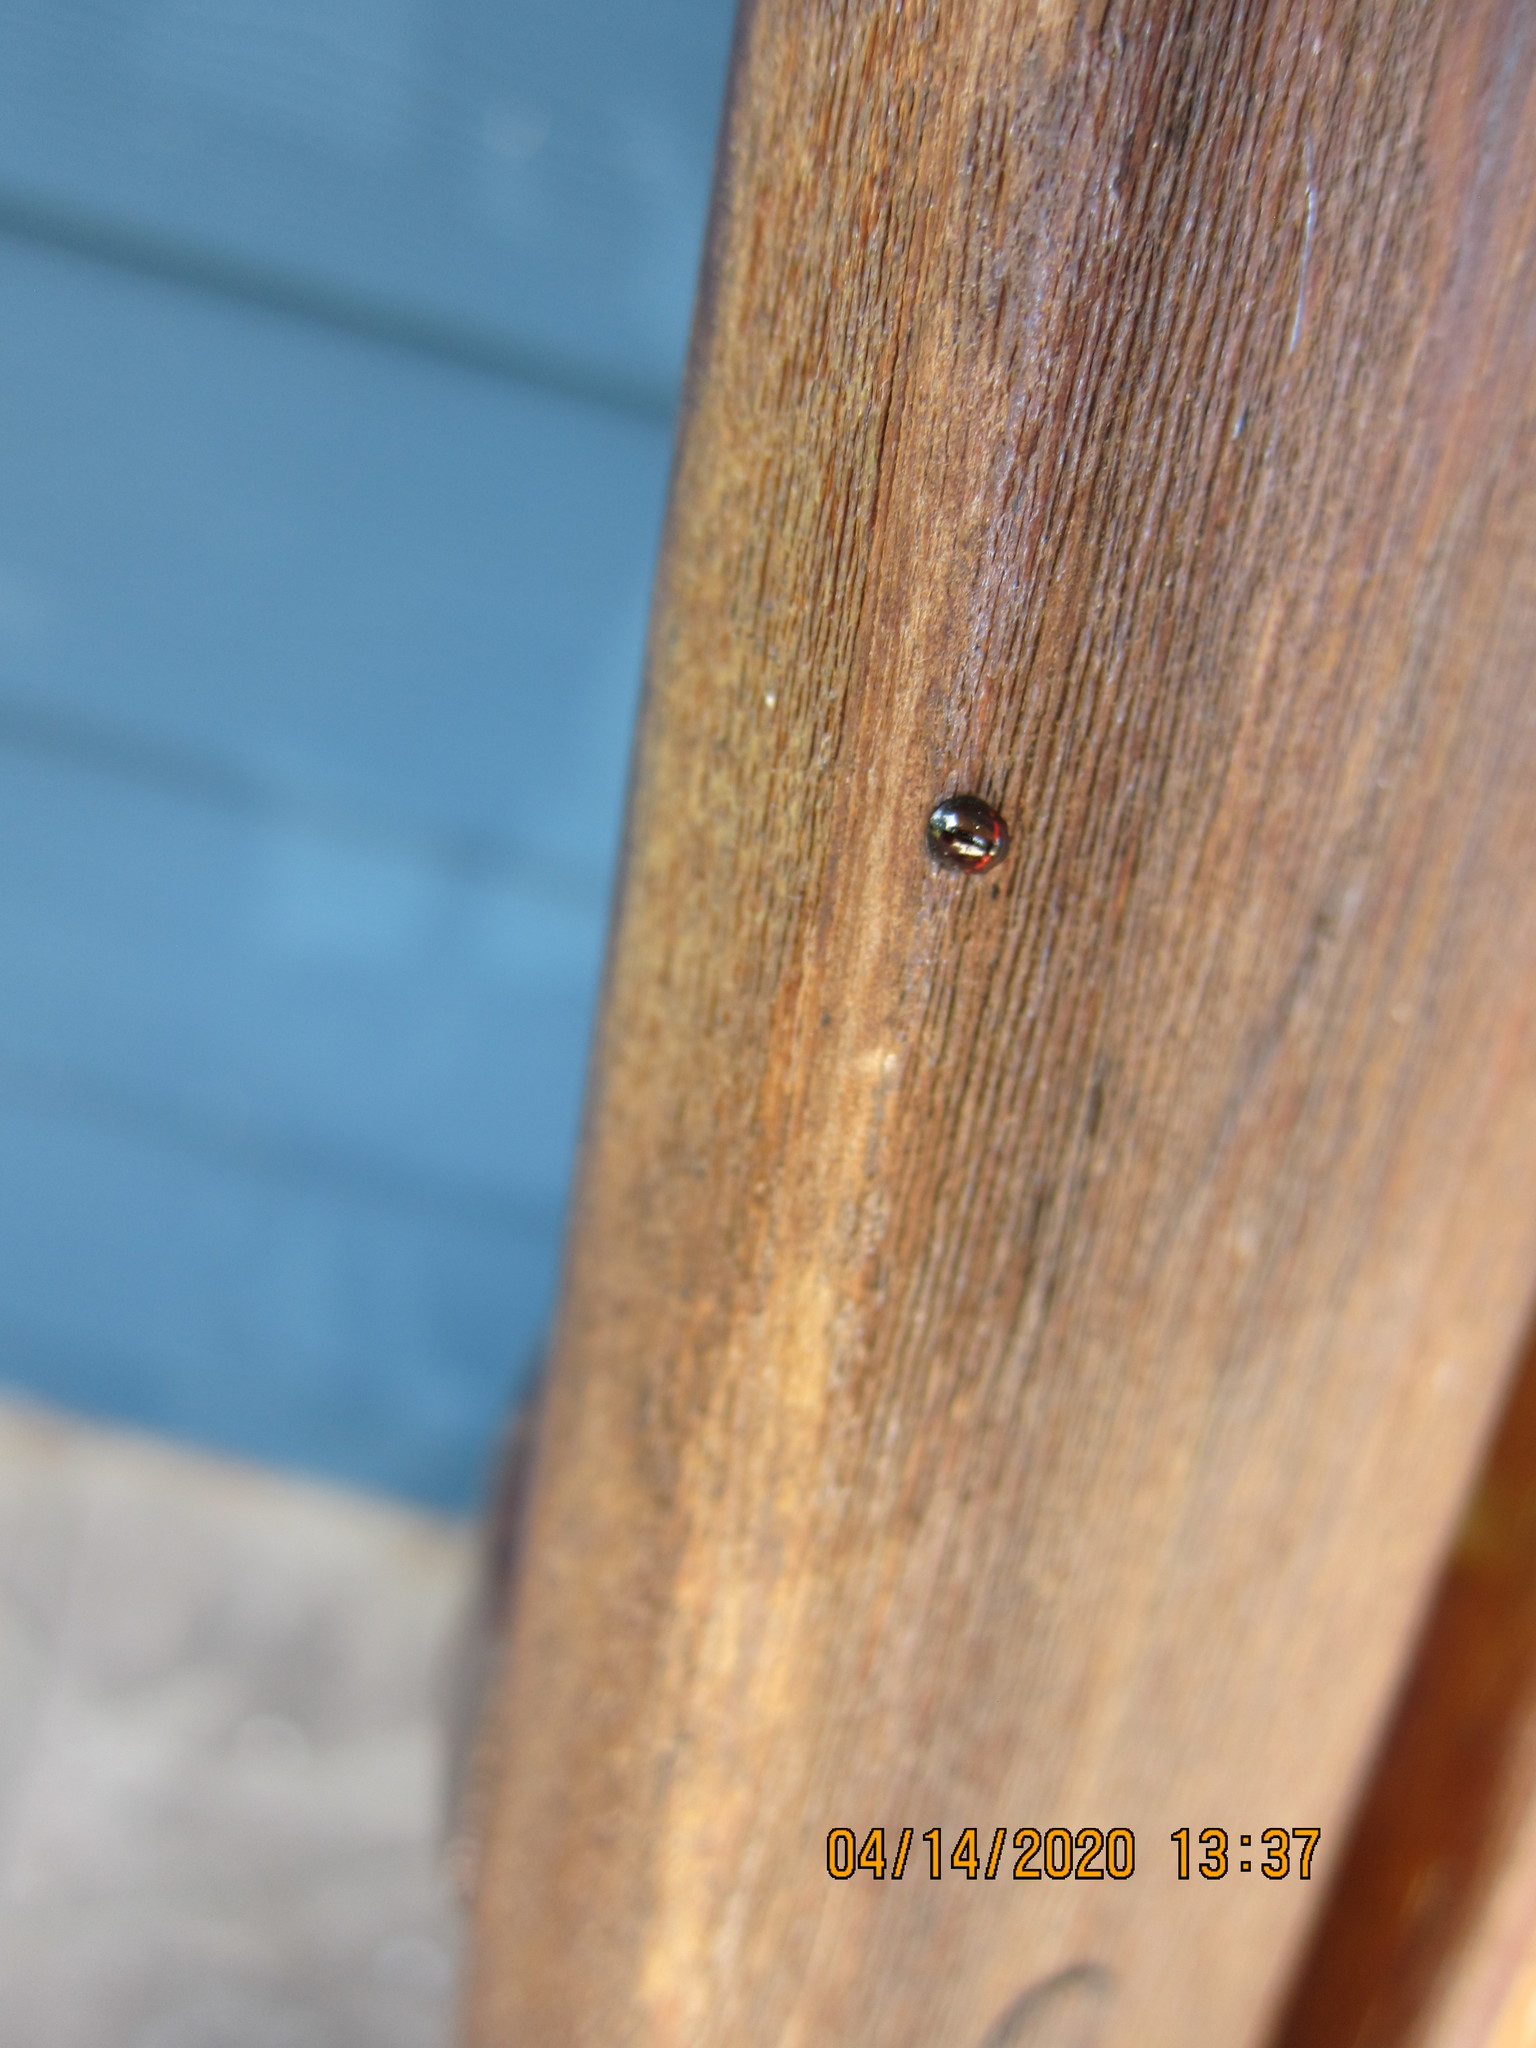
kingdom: Animalia
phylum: Arthropoda
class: Insecta
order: Coleoptera
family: Coccinellidae
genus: Chilocorus
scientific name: Chilocorus bipustulatus
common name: Heather ladybird
